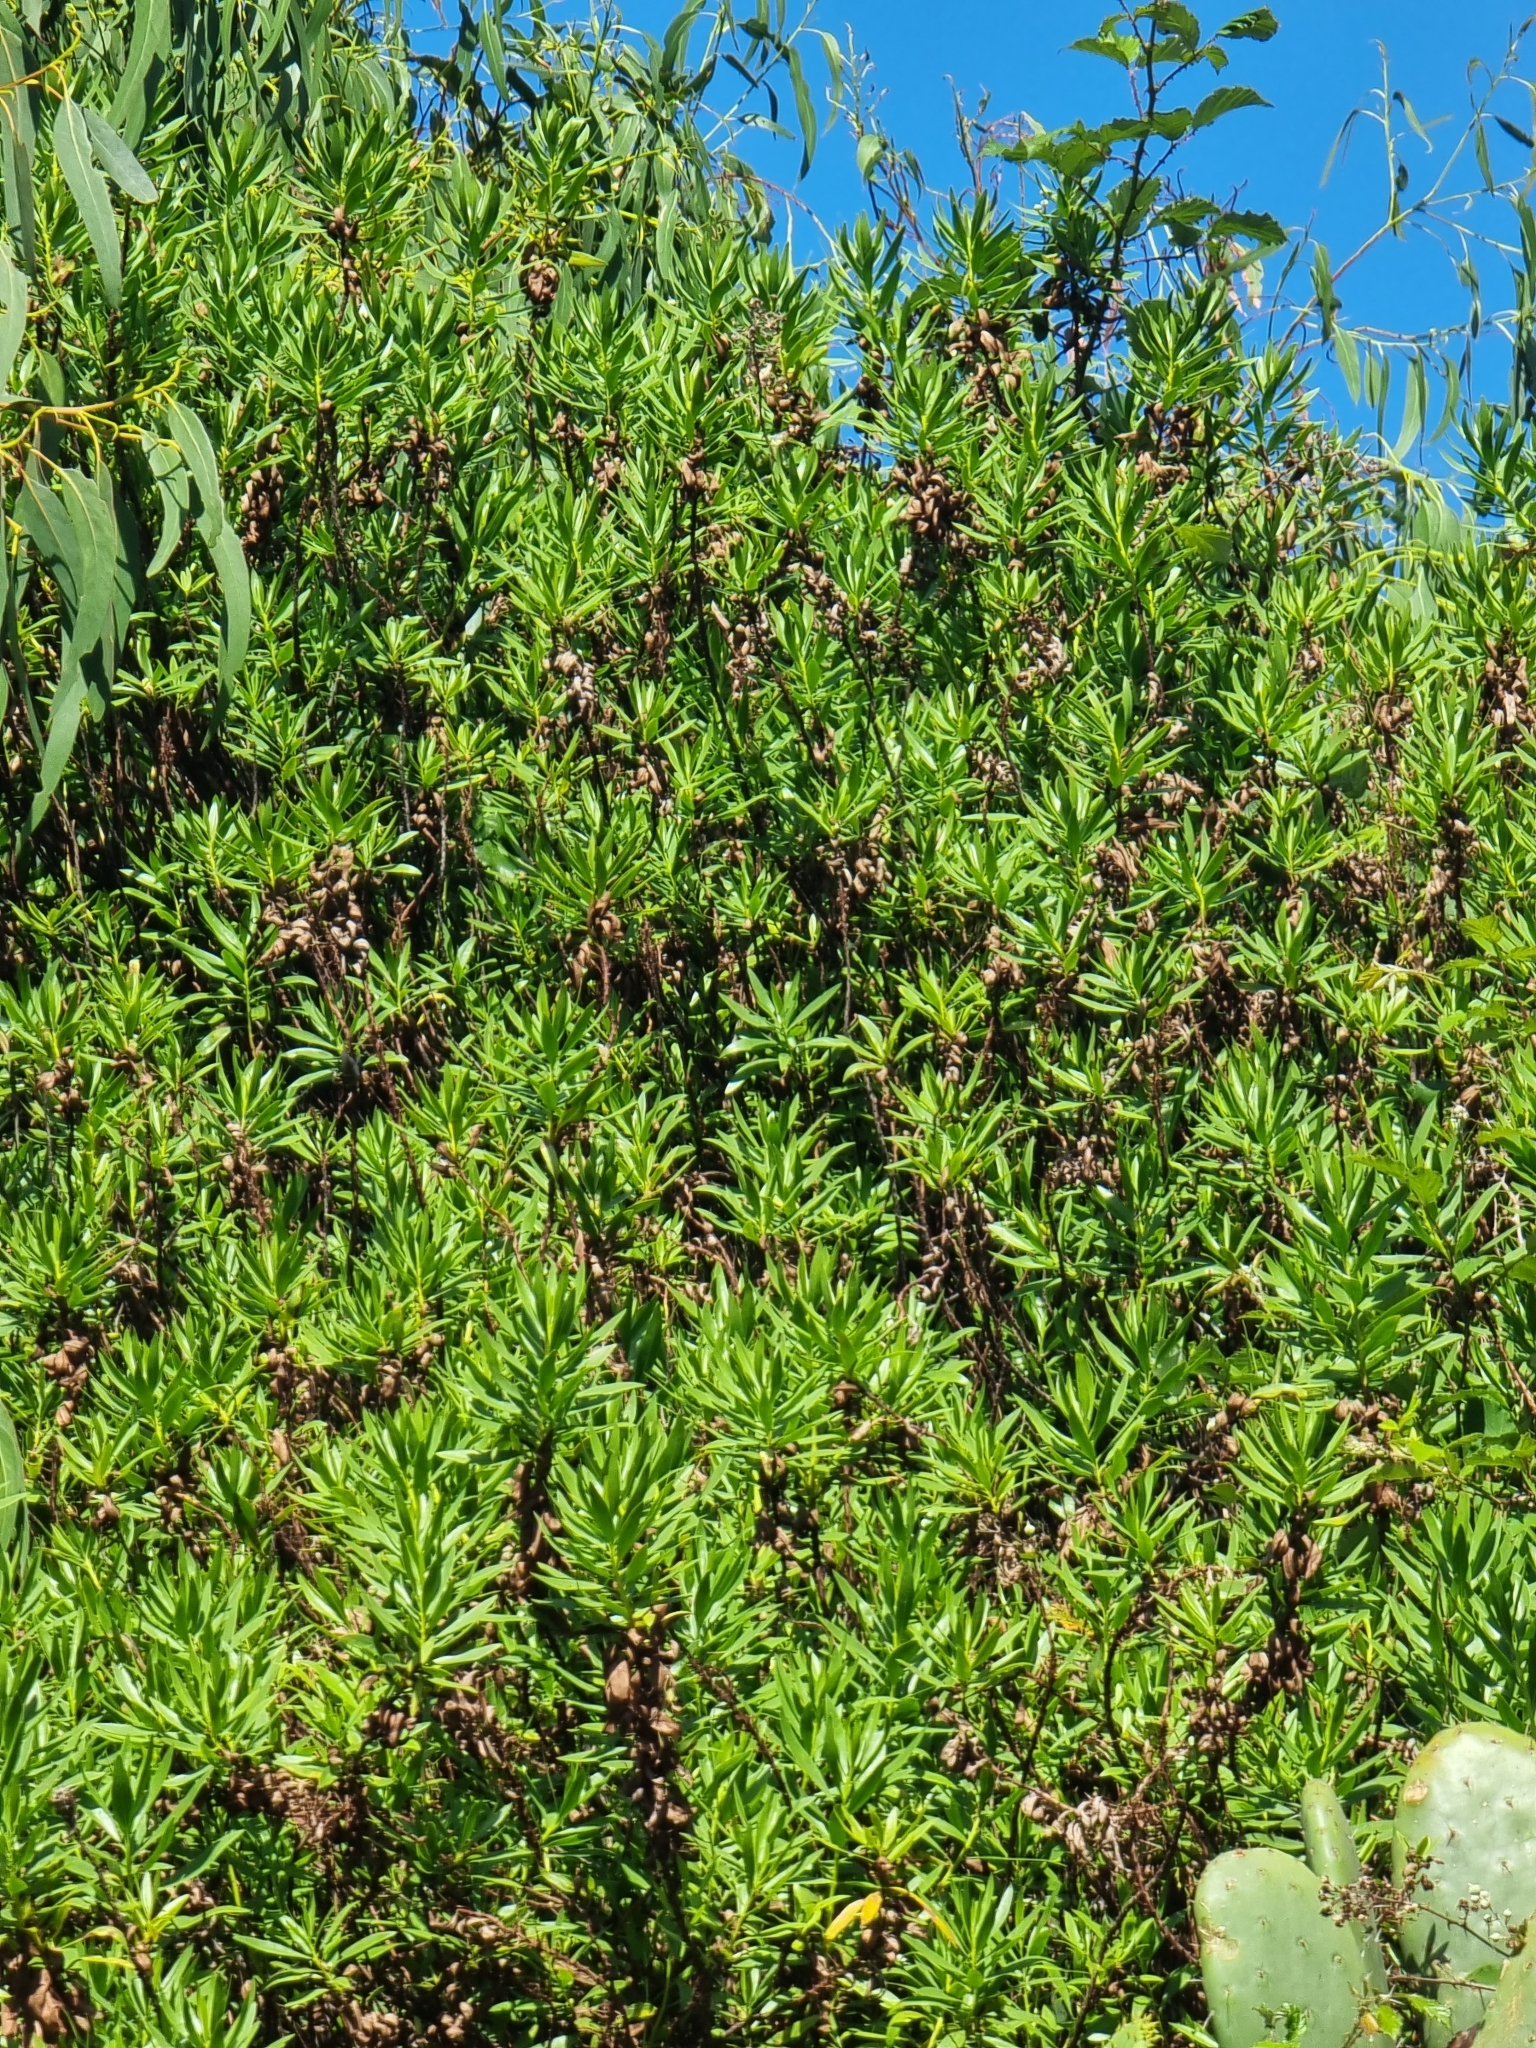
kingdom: Plantae
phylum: Tracheophyta
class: Magnoliopsida
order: Lamiales
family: Plantaginaceae
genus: Globularia
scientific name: Globularia salicina
